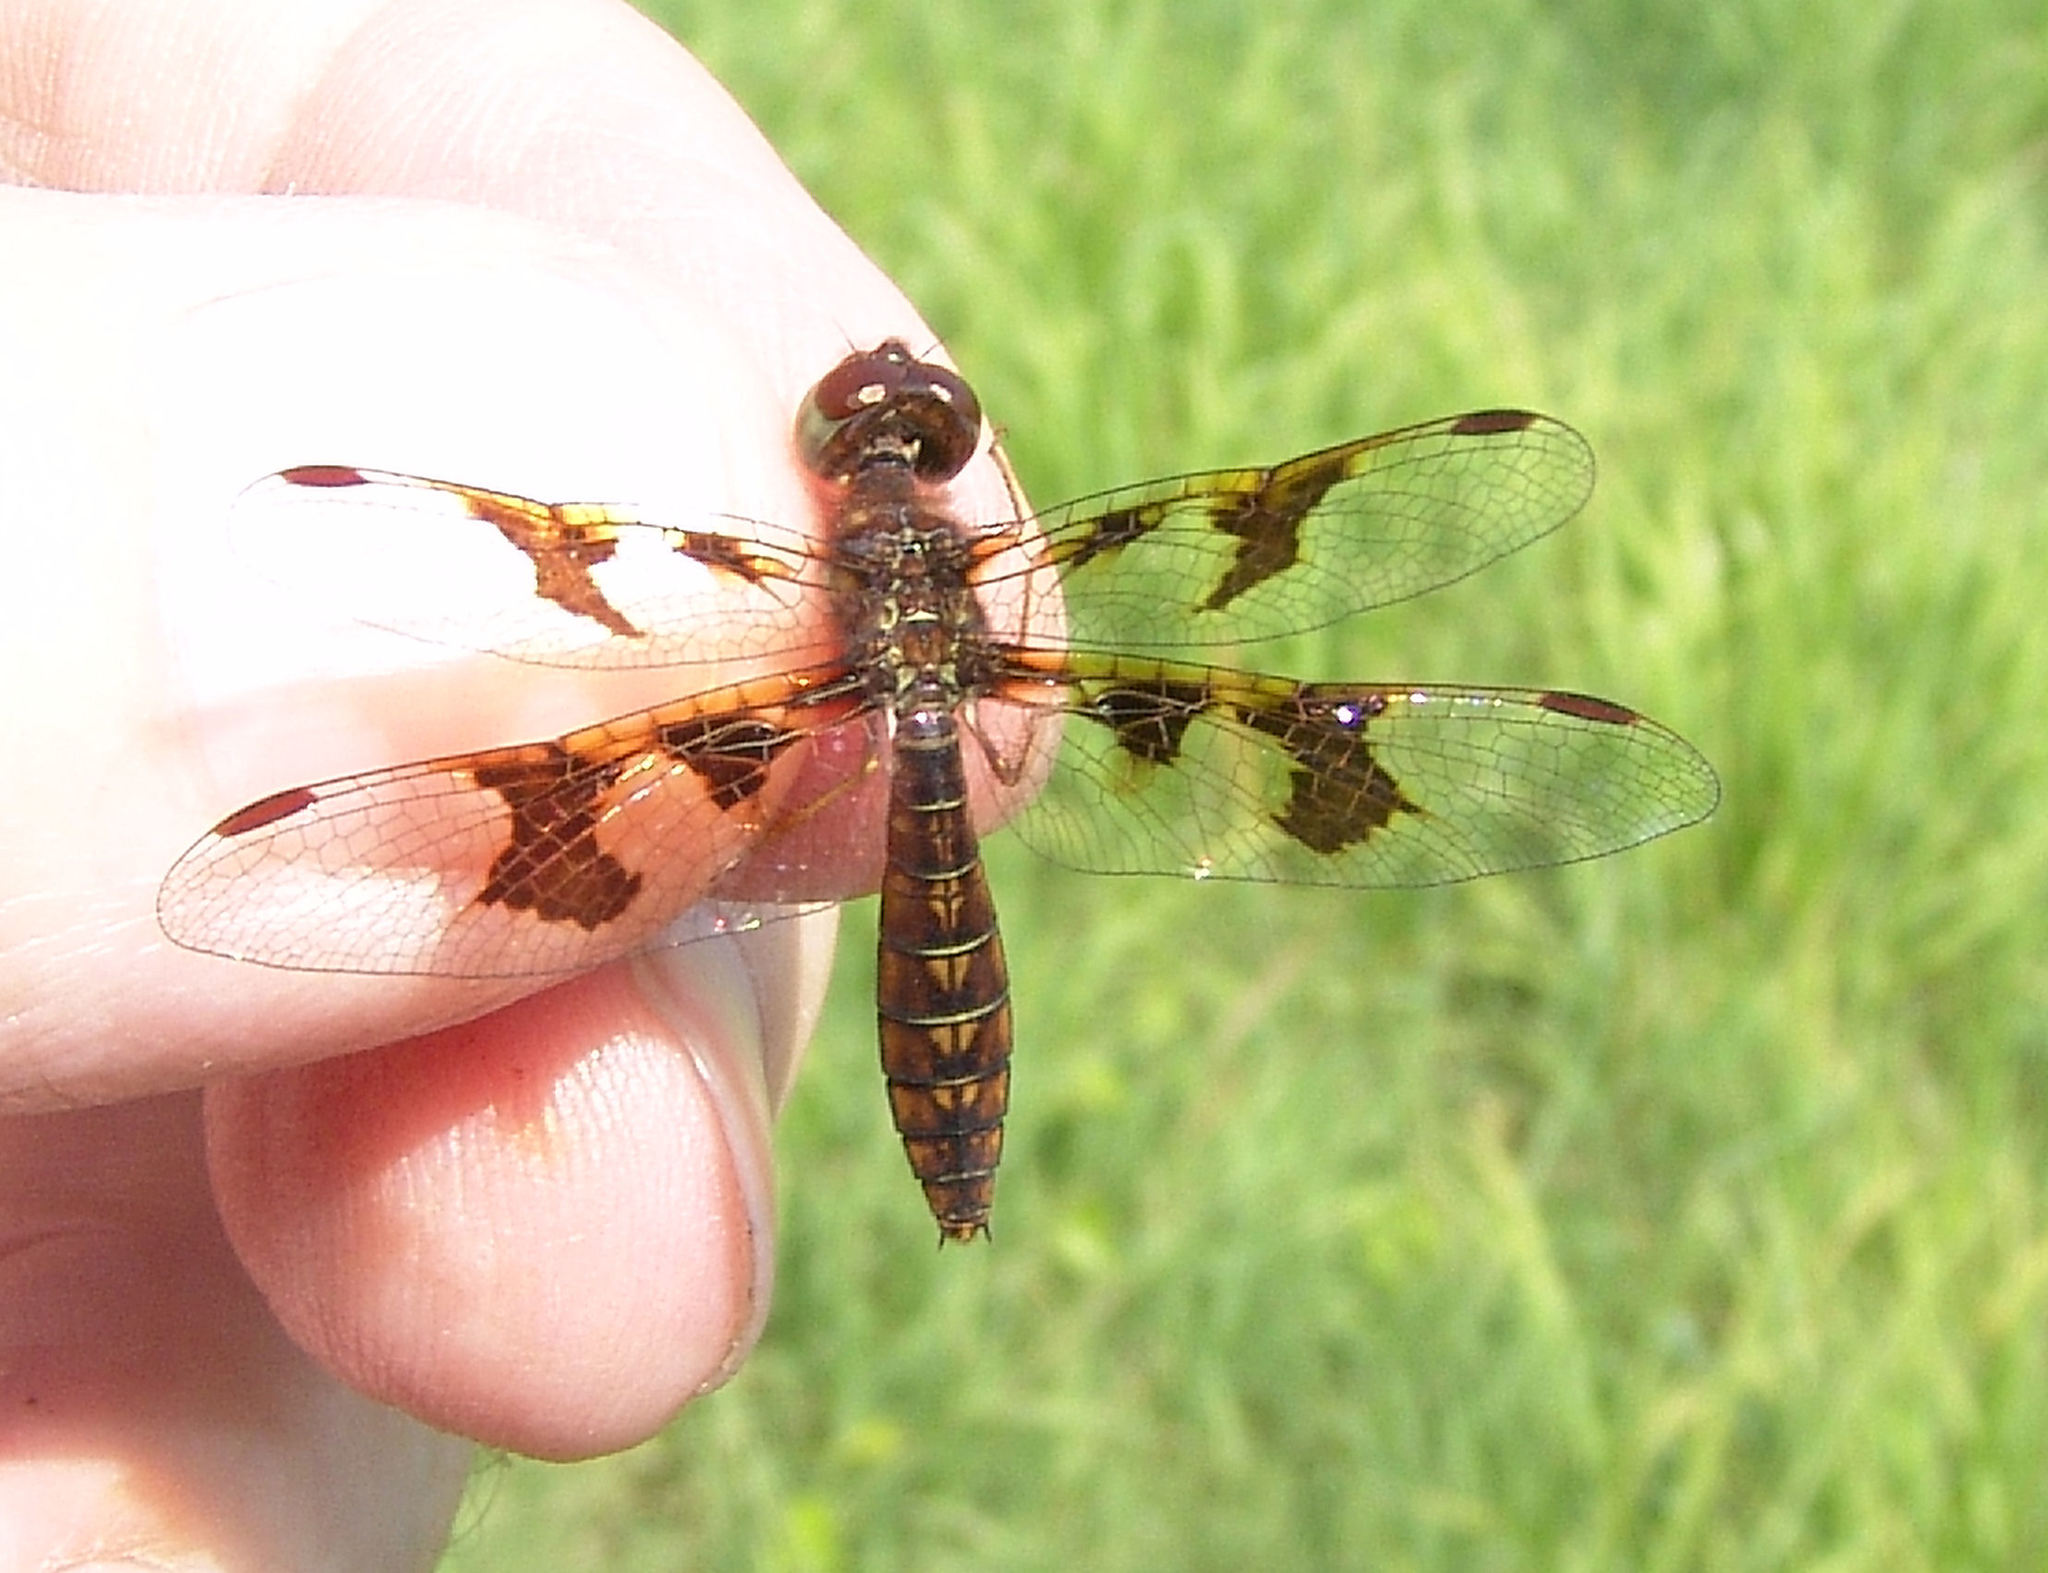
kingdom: Animalia
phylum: Arthropoda
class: Insecta
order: Odonata
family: Libellulidae
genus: Perithemis
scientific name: Perithemis tenera
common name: Eastern amberwing
